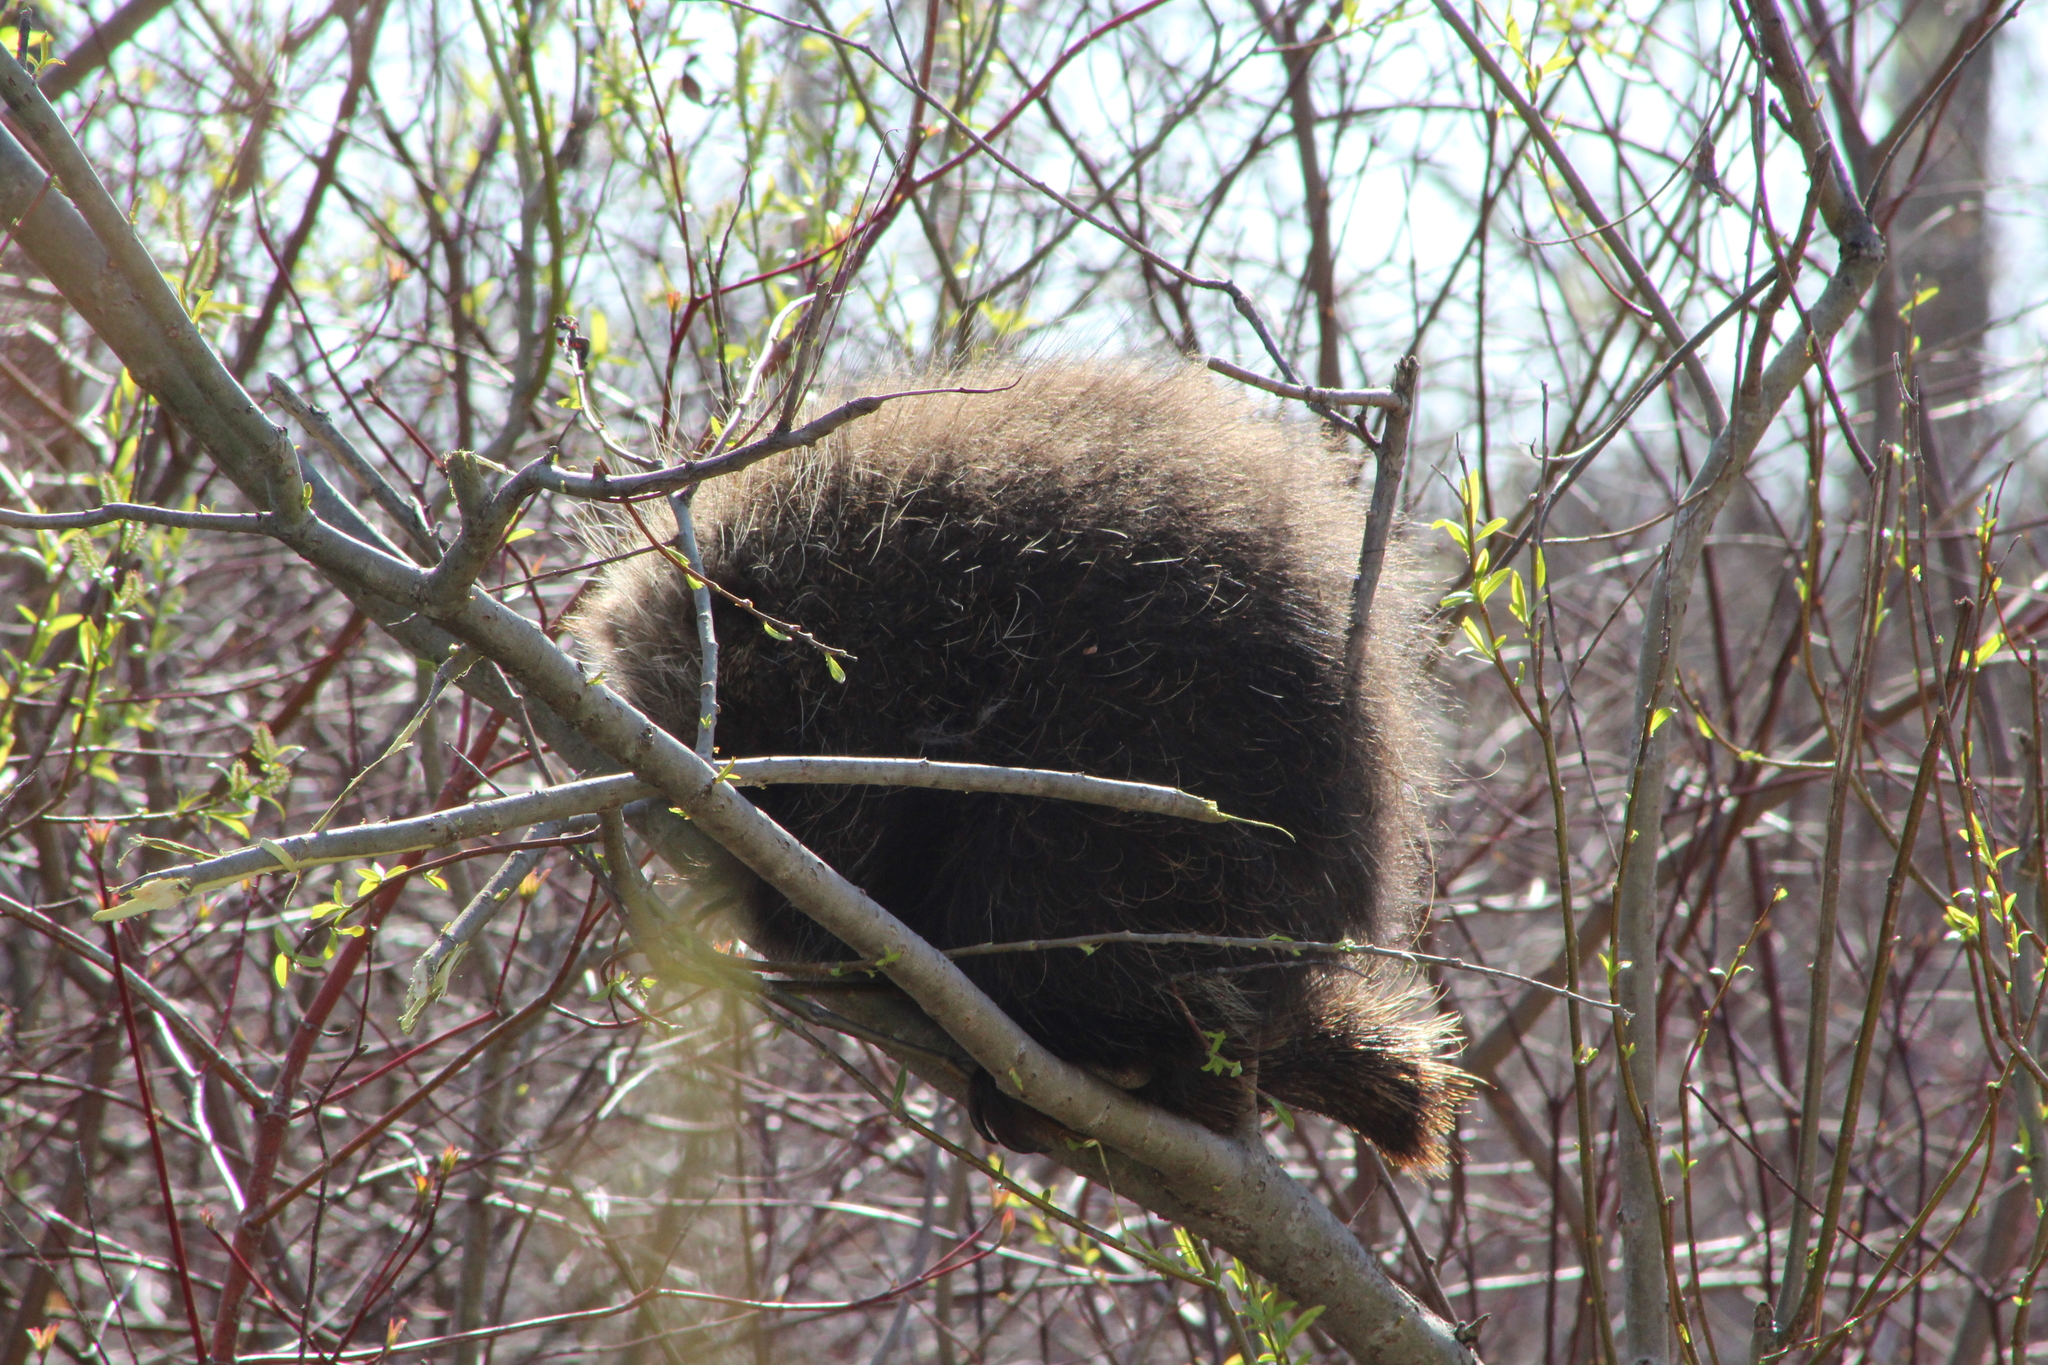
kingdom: Animalia
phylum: Chordata
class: Mammalia
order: Rodentia
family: Erethizontidae
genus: Erethizon
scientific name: Erethizon dorsatus
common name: North american porcupine
